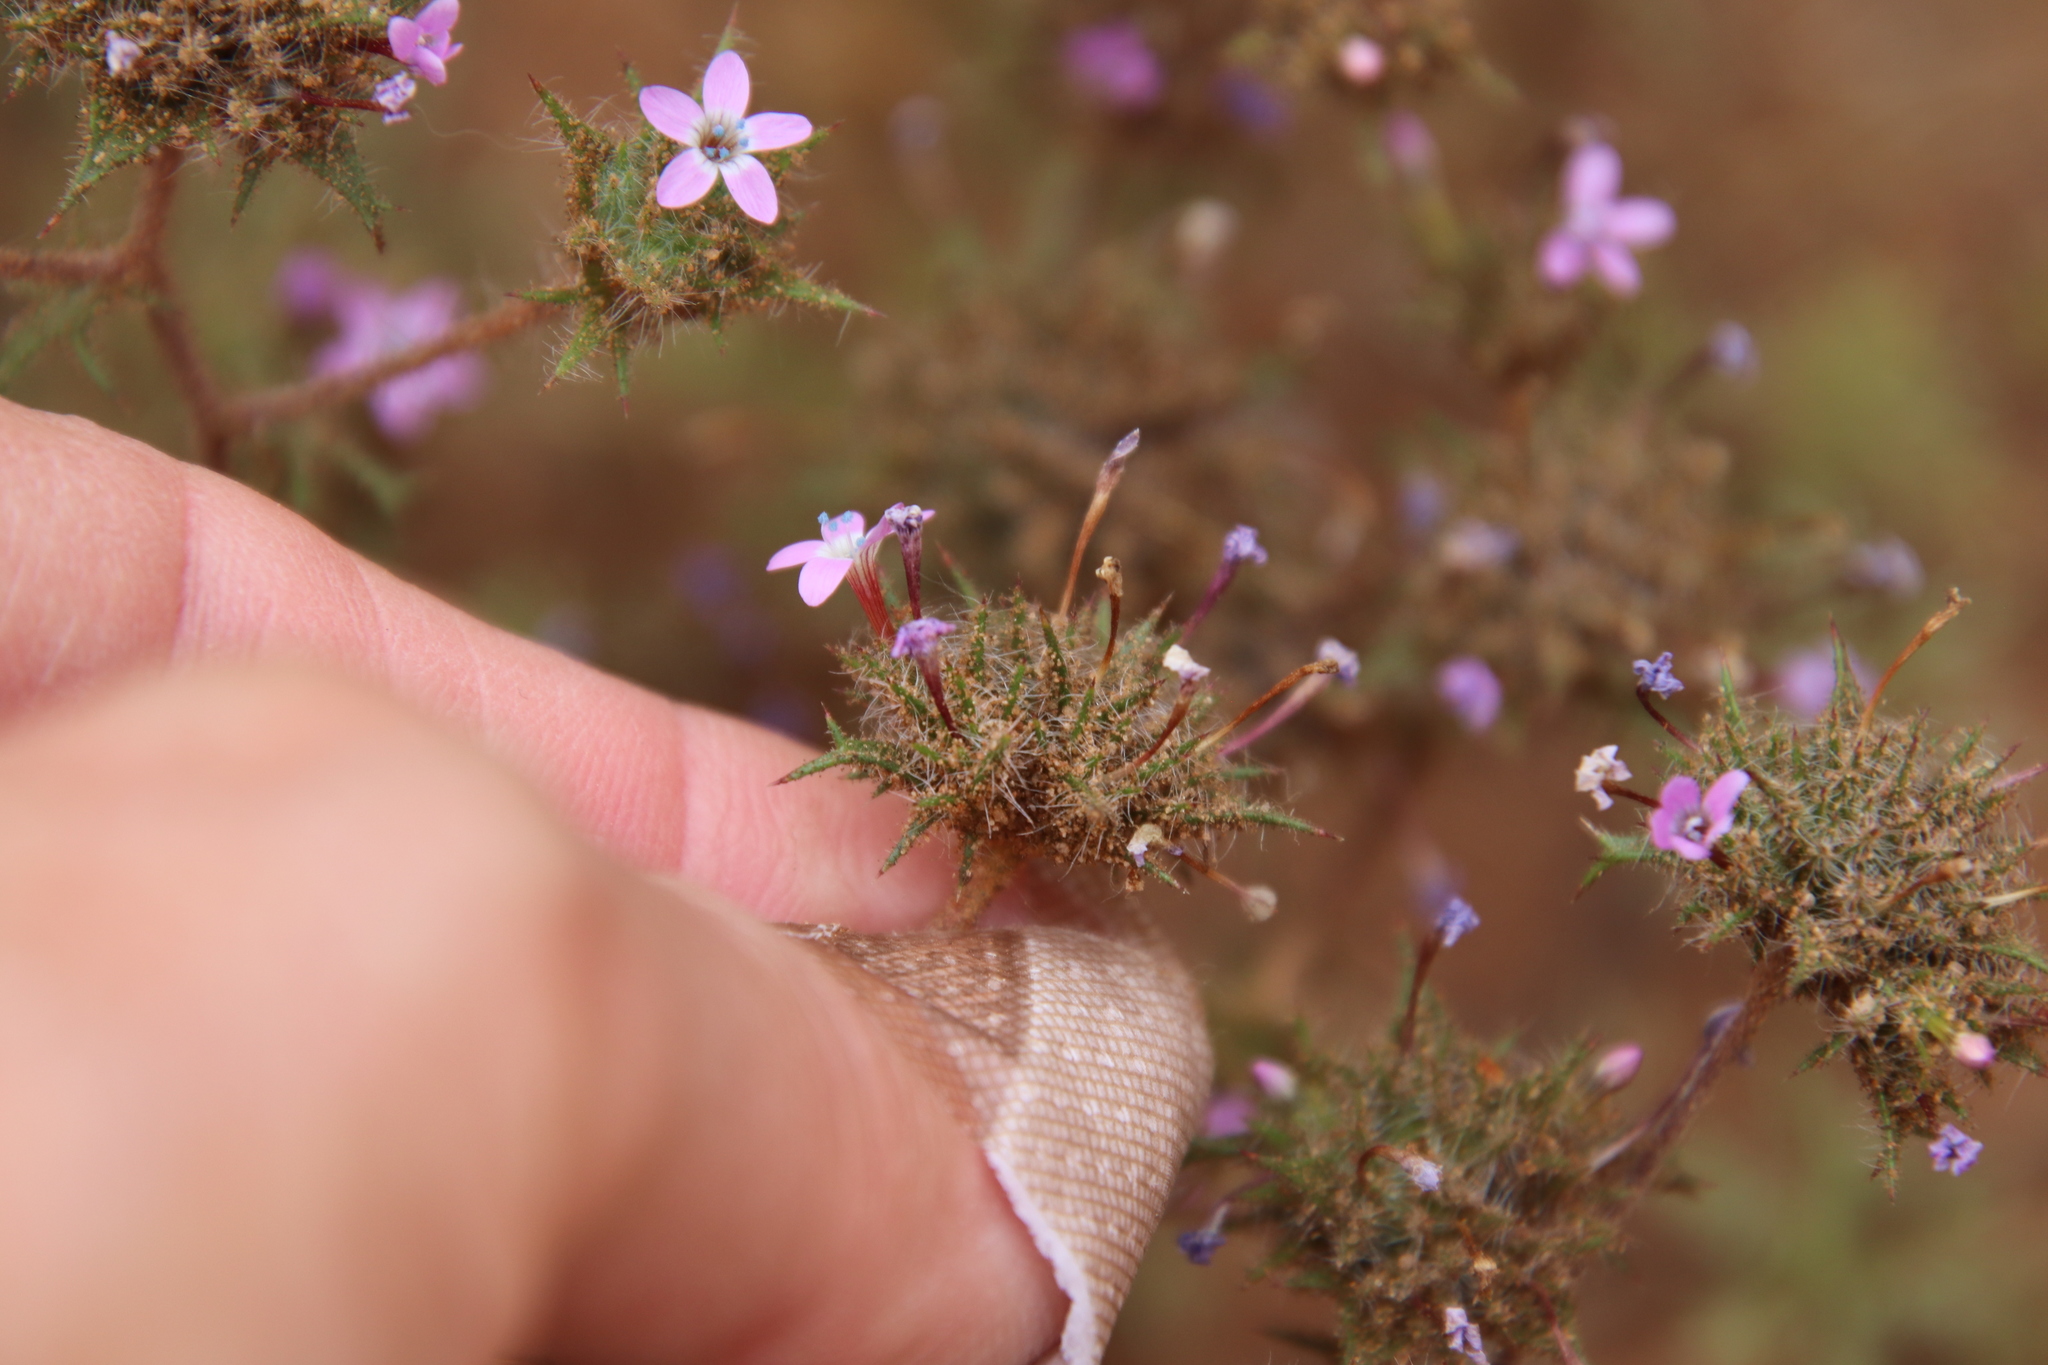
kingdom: Plantae
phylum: Tracheophyta
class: Magnoliopsida
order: Ericales
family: Polemoniaceae
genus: Navarretia
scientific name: Navarretia hamata
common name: Hooked navarretia
